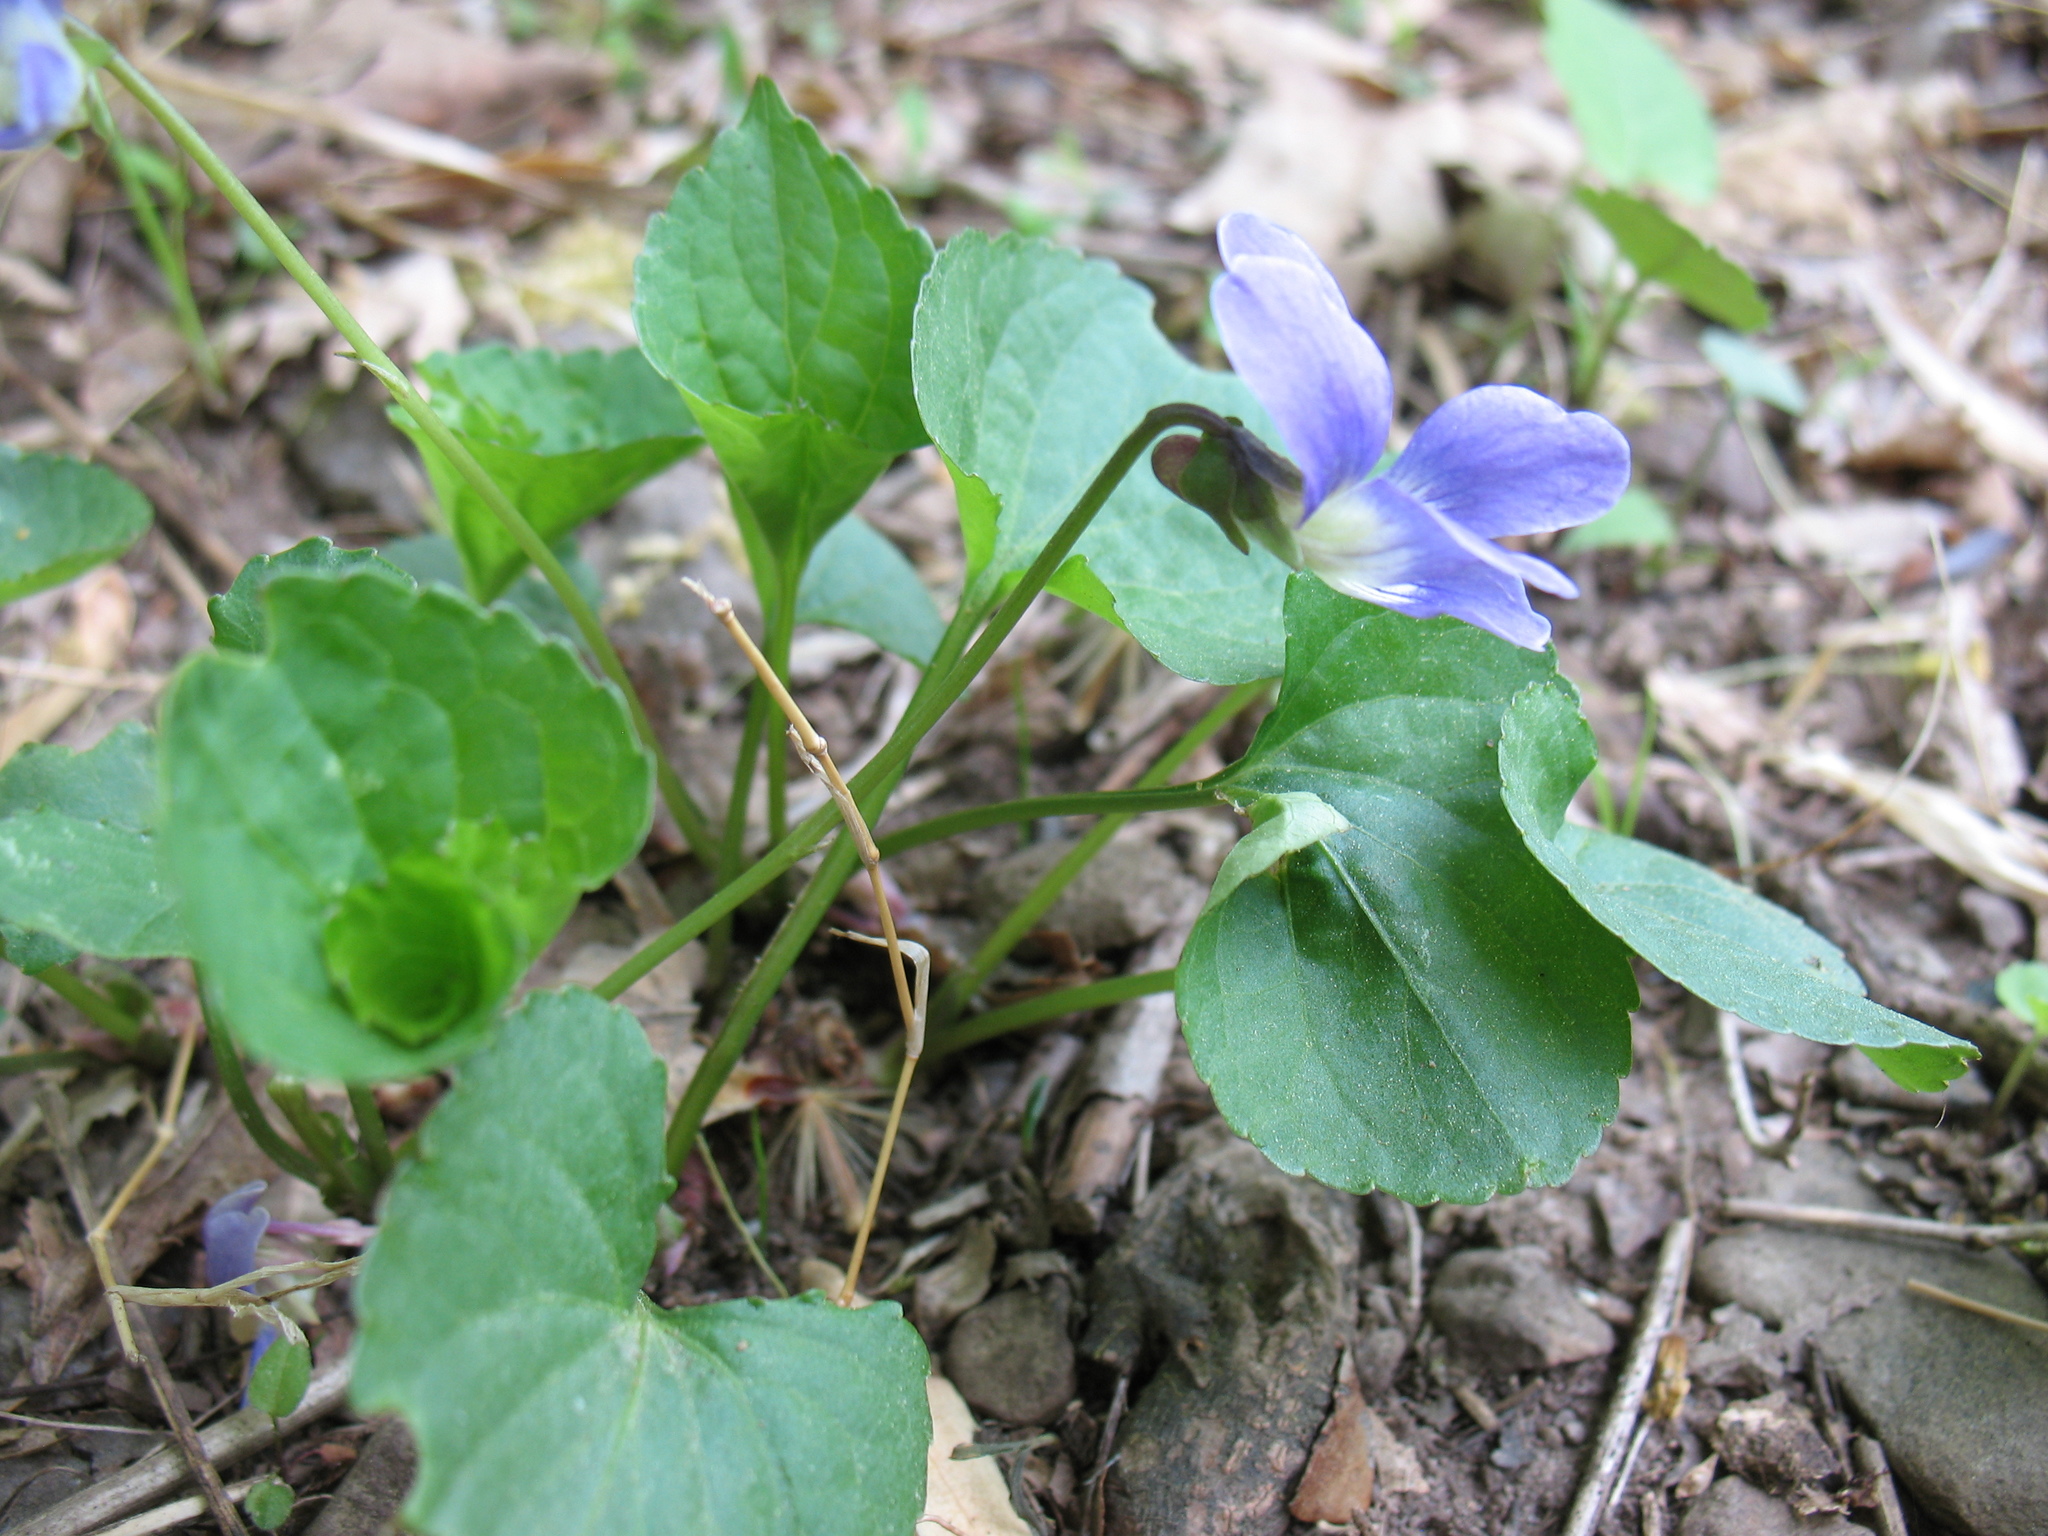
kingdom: Plantae
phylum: Tracheophyta
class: Magnoliopsida
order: Malpighiales
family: Violaceae
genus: Viola
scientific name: Viola cucullata
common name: Marsh blue violet
